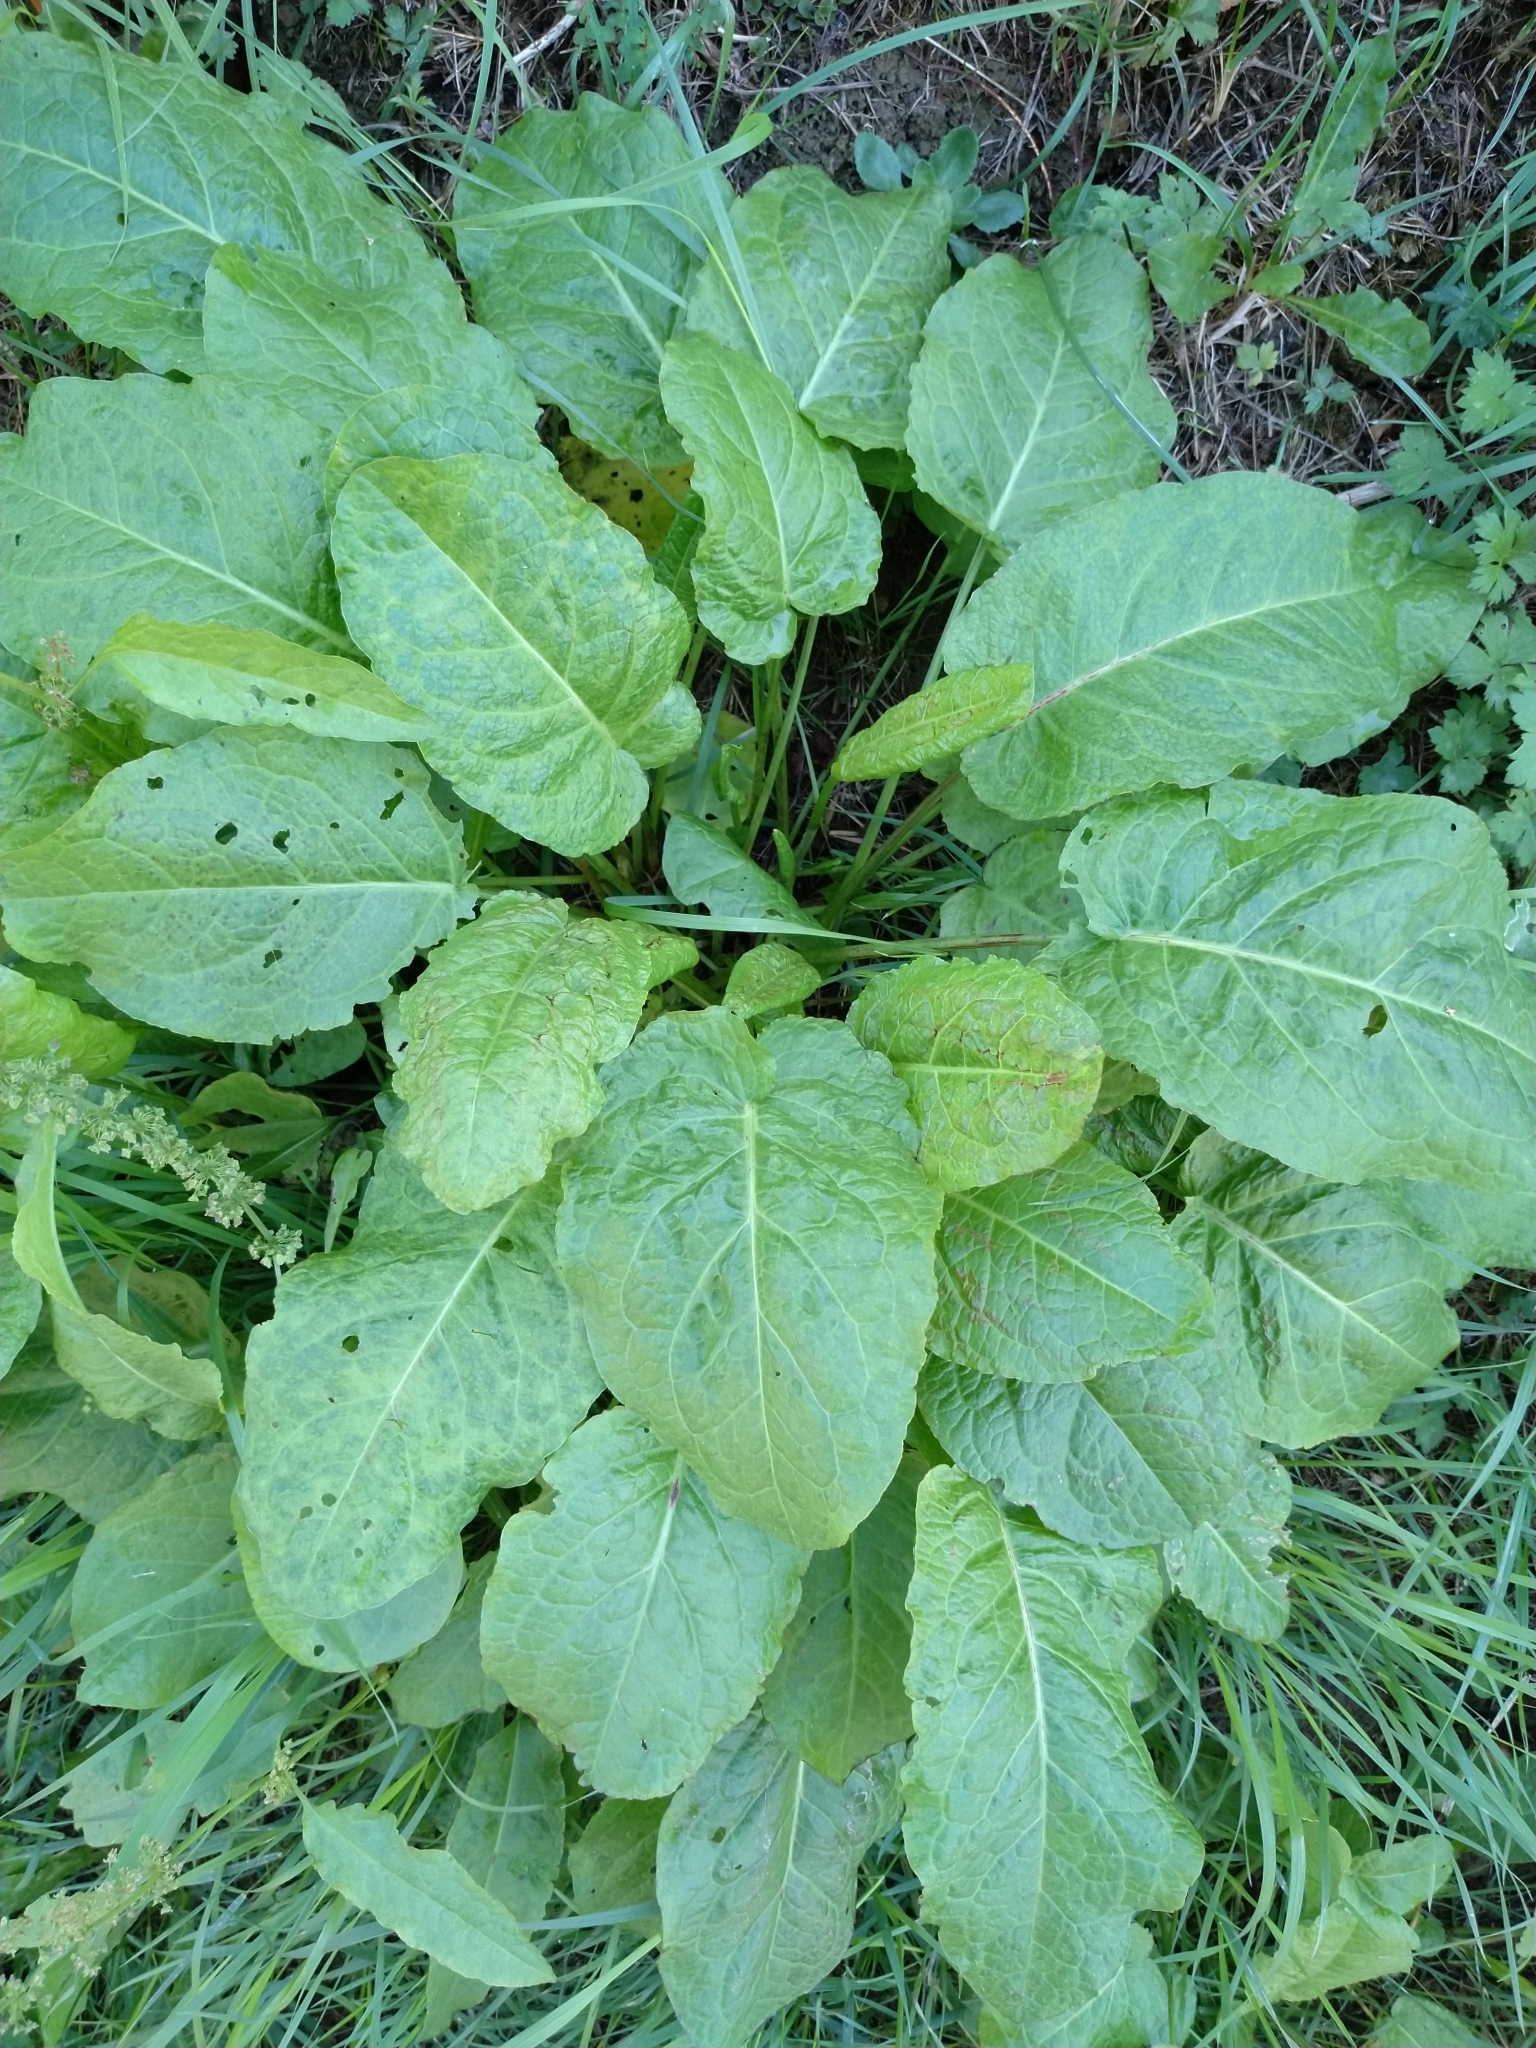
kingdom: Plantae
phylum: Tracheophyta
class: Magnoliopsida
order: Caryophyllales
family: Polygonaceae
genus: Rumex
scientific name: Rumex obtusifolius
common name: Bitter dock
